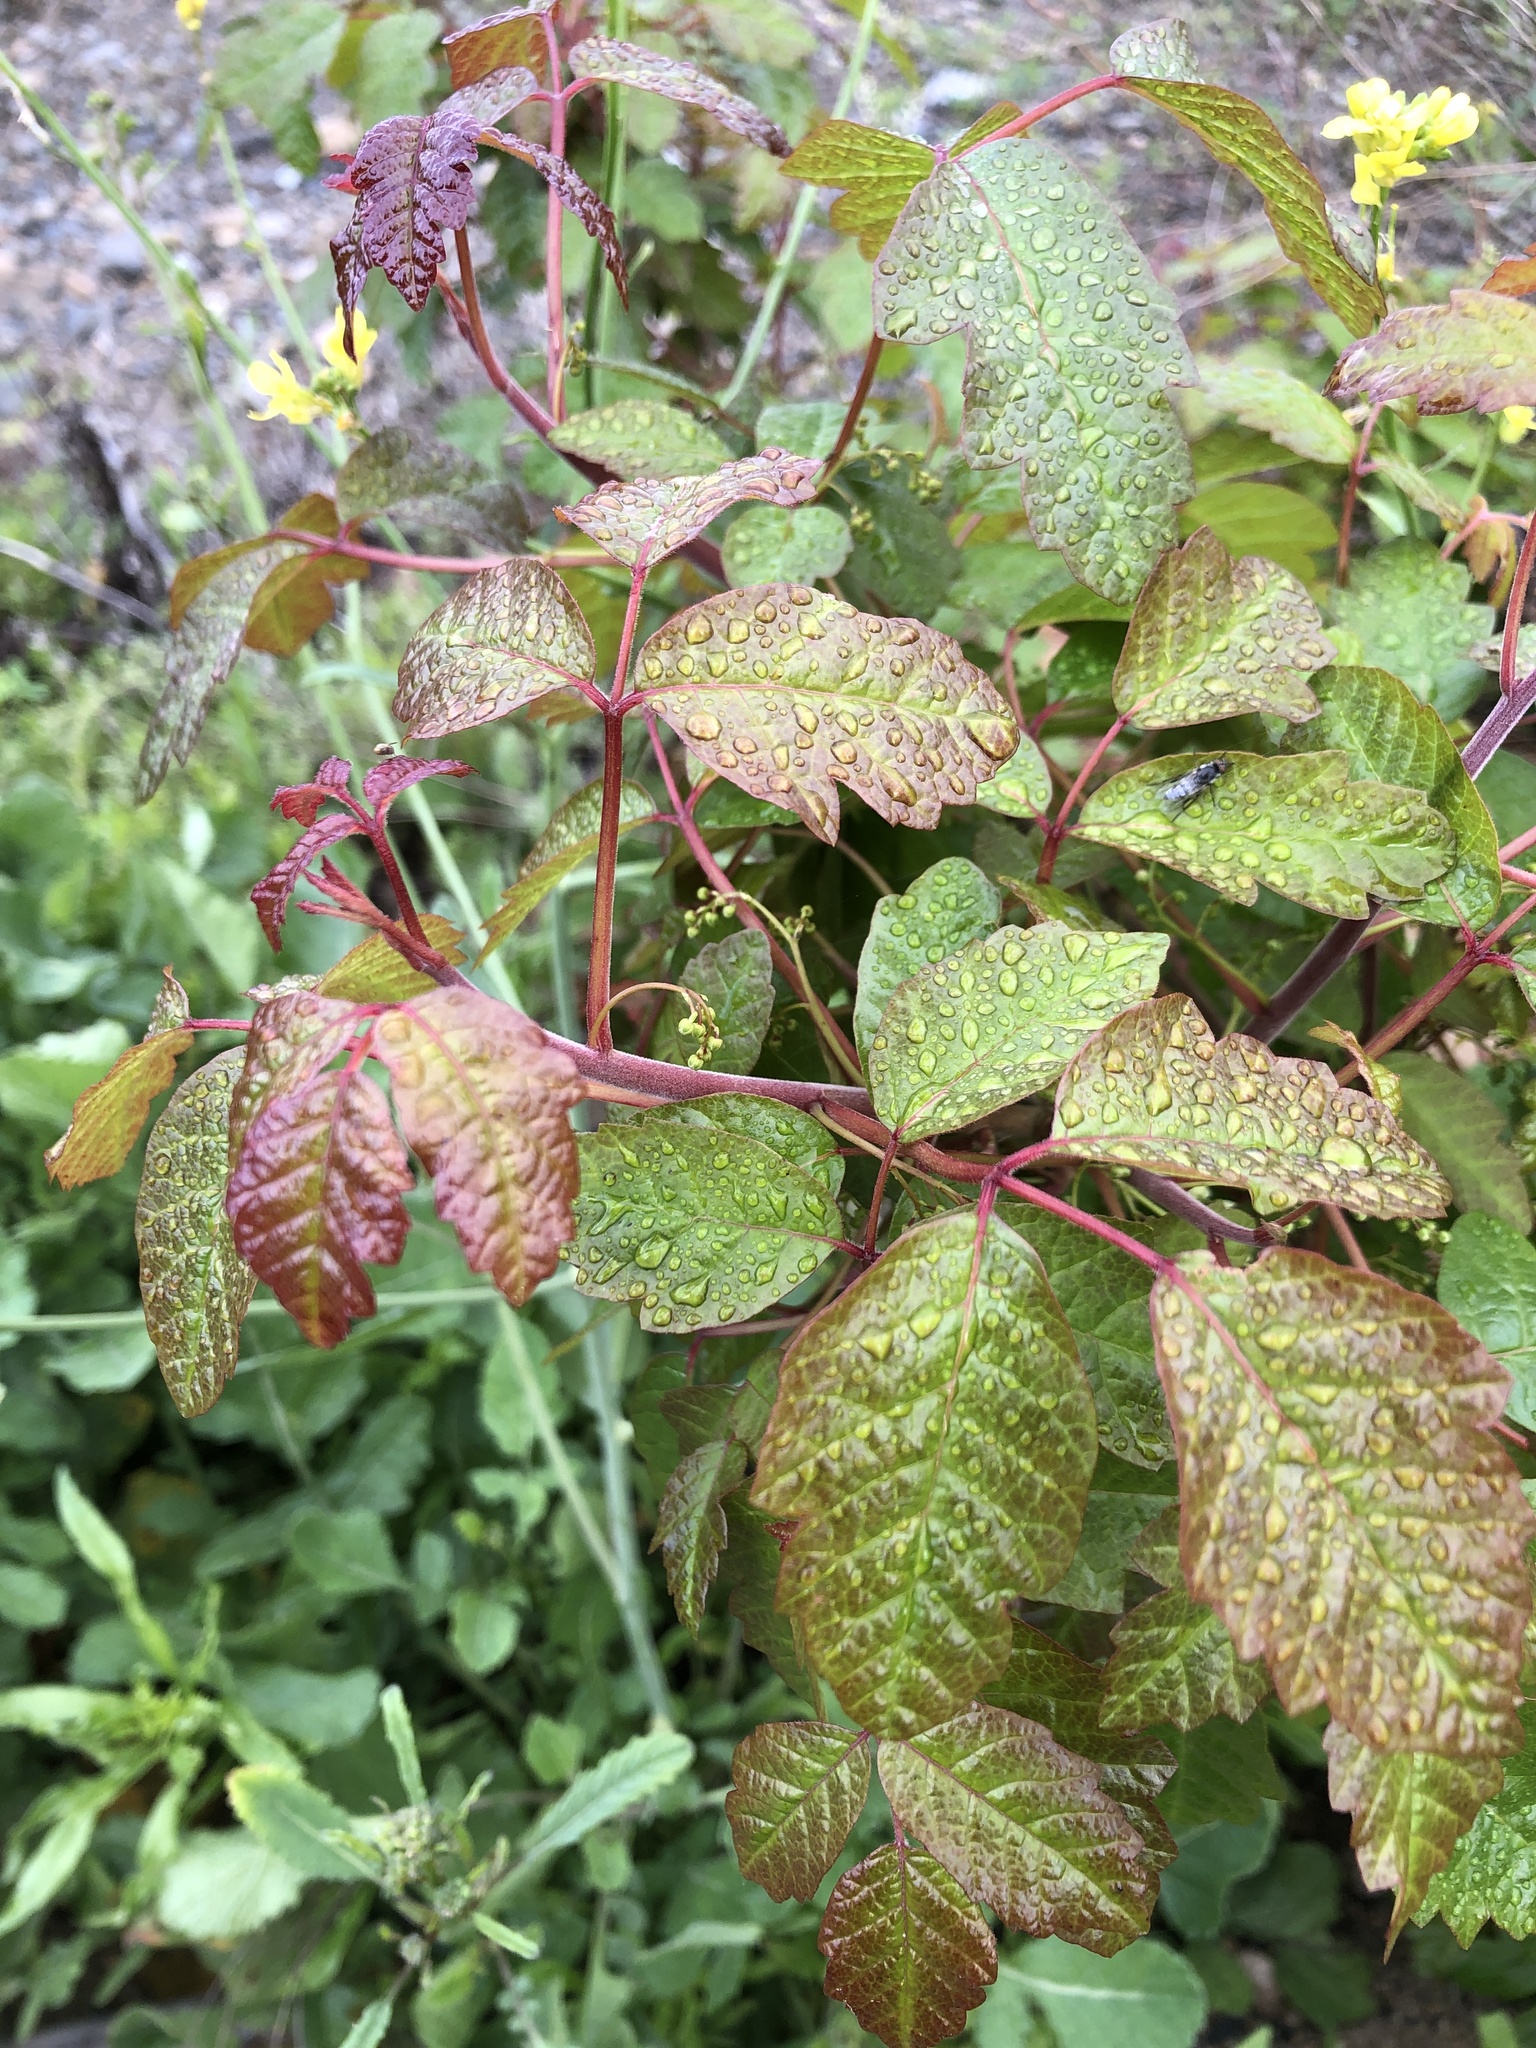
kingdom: Plantae
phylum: Tracheophyta
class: Magnoliopsida
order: Sapindales
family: Anacardiaceae
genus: Toxicodendron
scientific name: Toxicodendron diversilobum
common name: Pacific poison-oak
